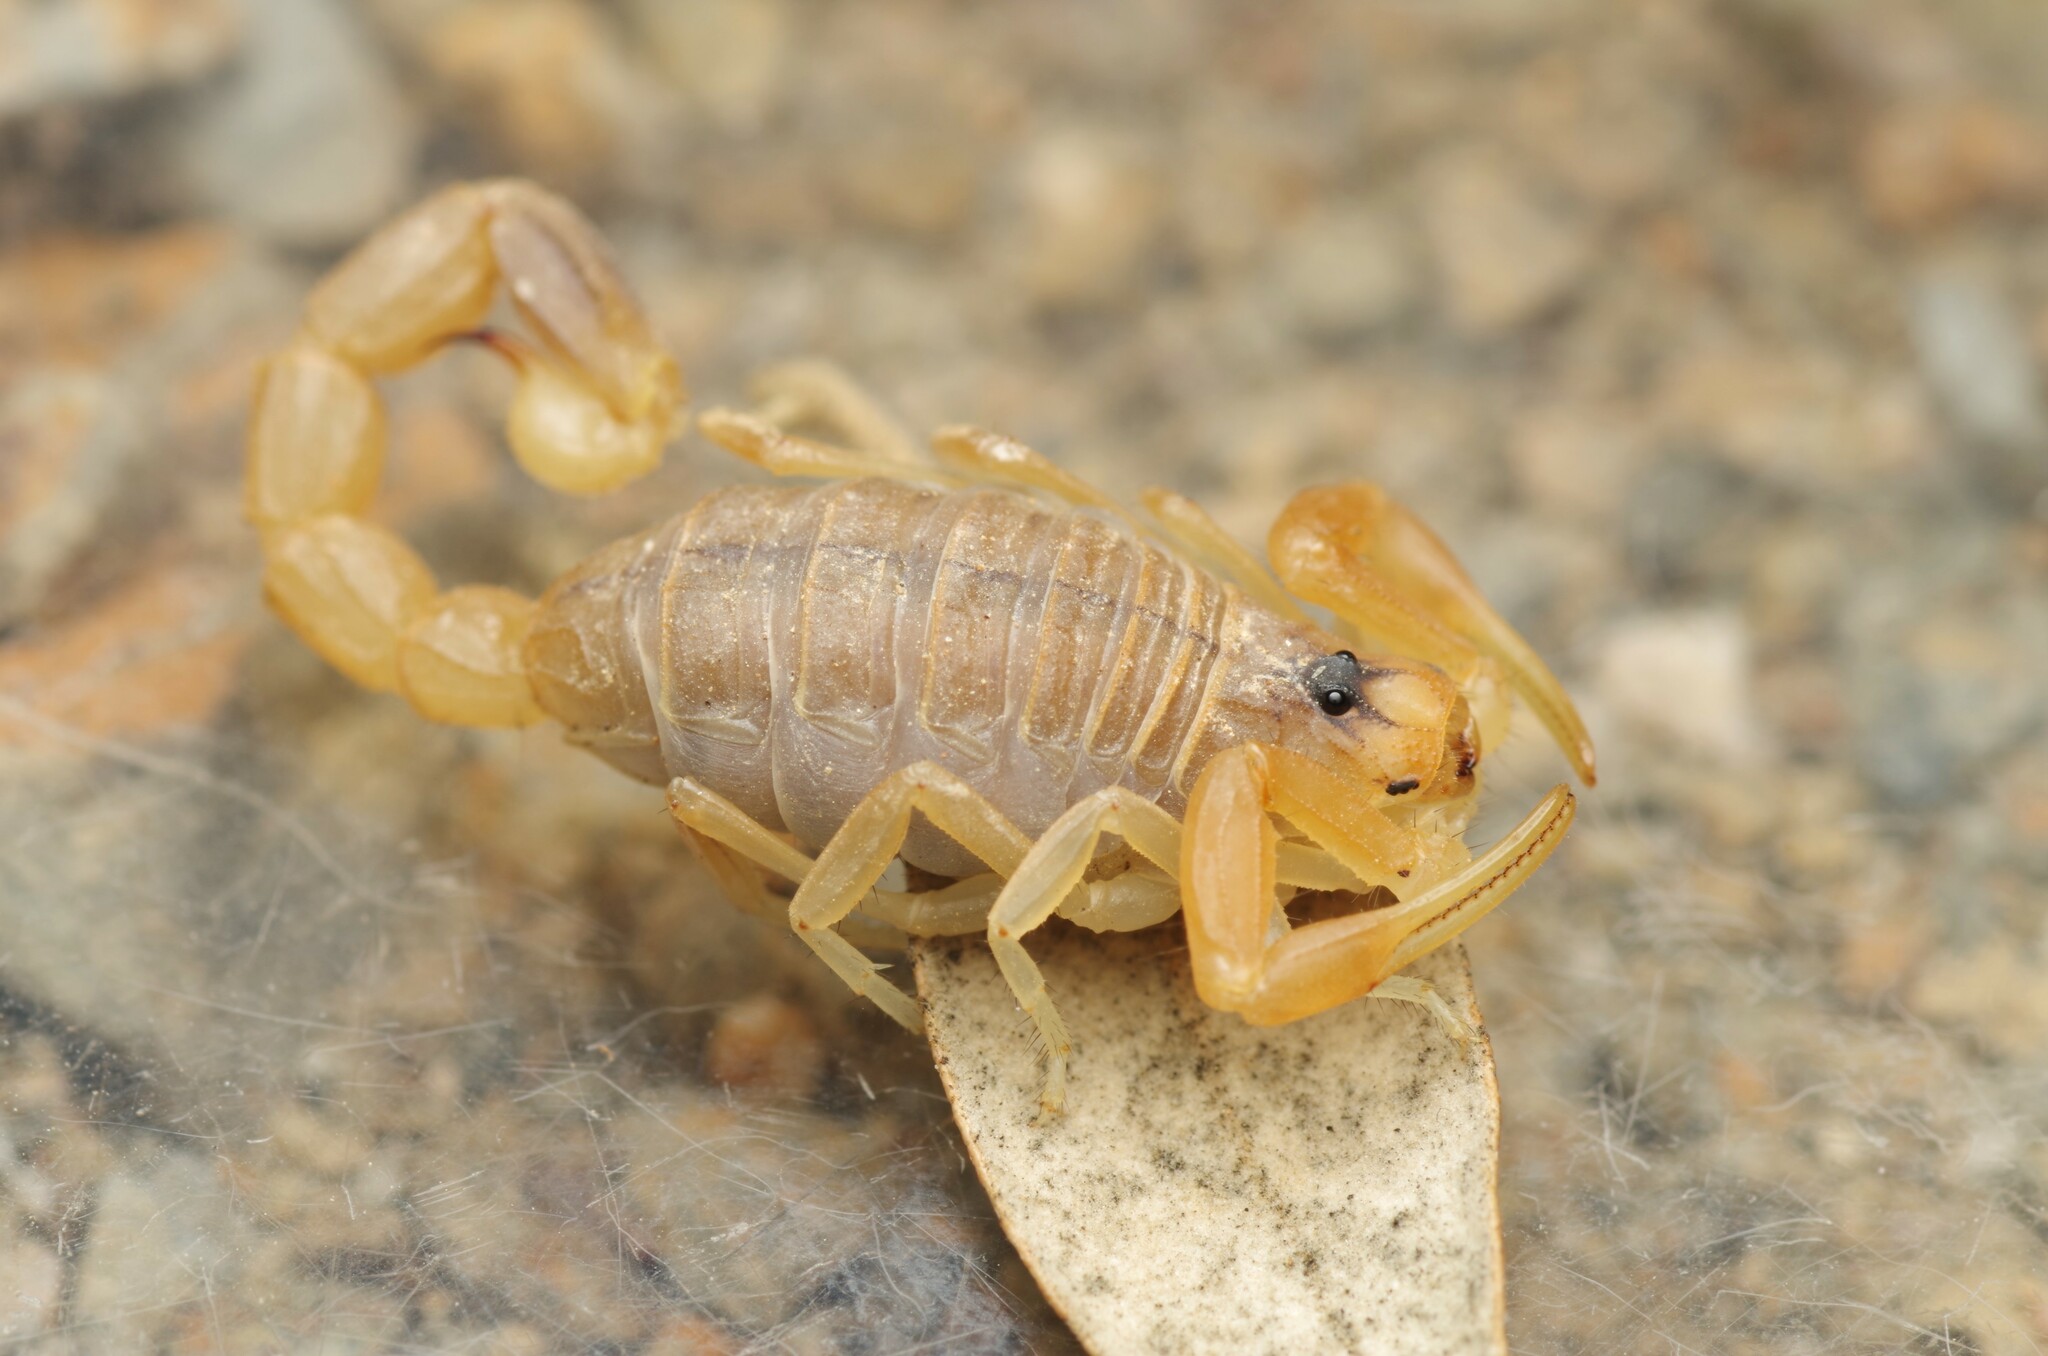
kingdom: Animalia
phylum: Arthropoda
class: Arachnida
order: Scorpiones
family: Buthidae
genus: Buthus
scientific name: Buthus pyrenaeus
